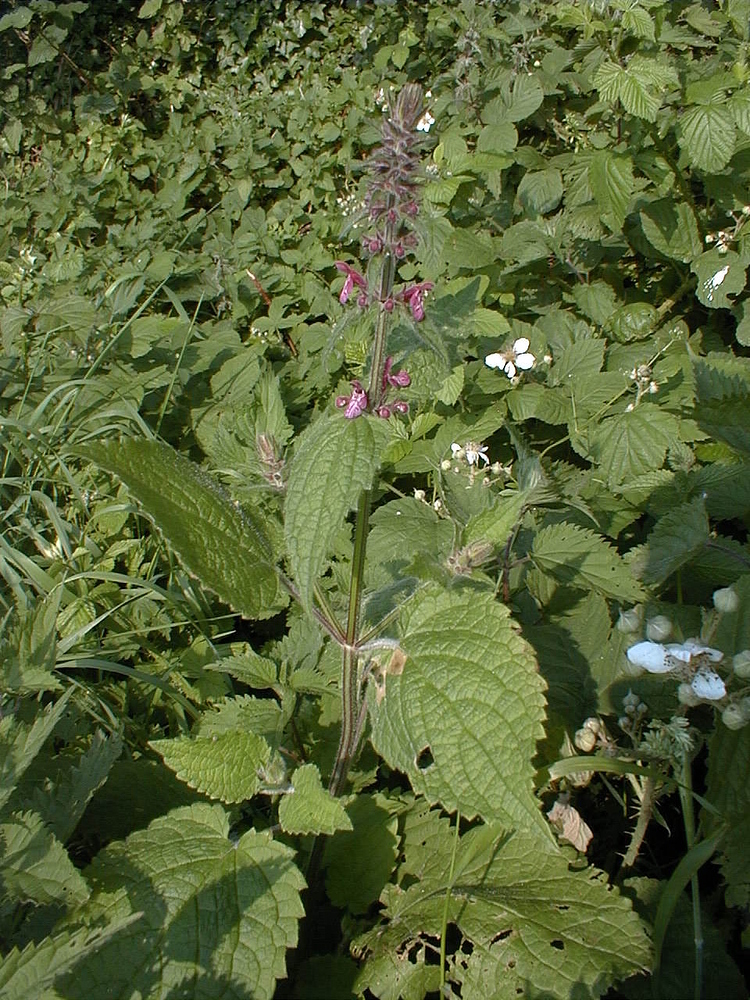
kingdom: Plantae
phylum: Tracheophyta
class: Magnoliopsida
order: Lamiales
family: Lamiaceae
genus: Stachys
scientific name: Stachys sylvatica
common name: Hedge woundwort
